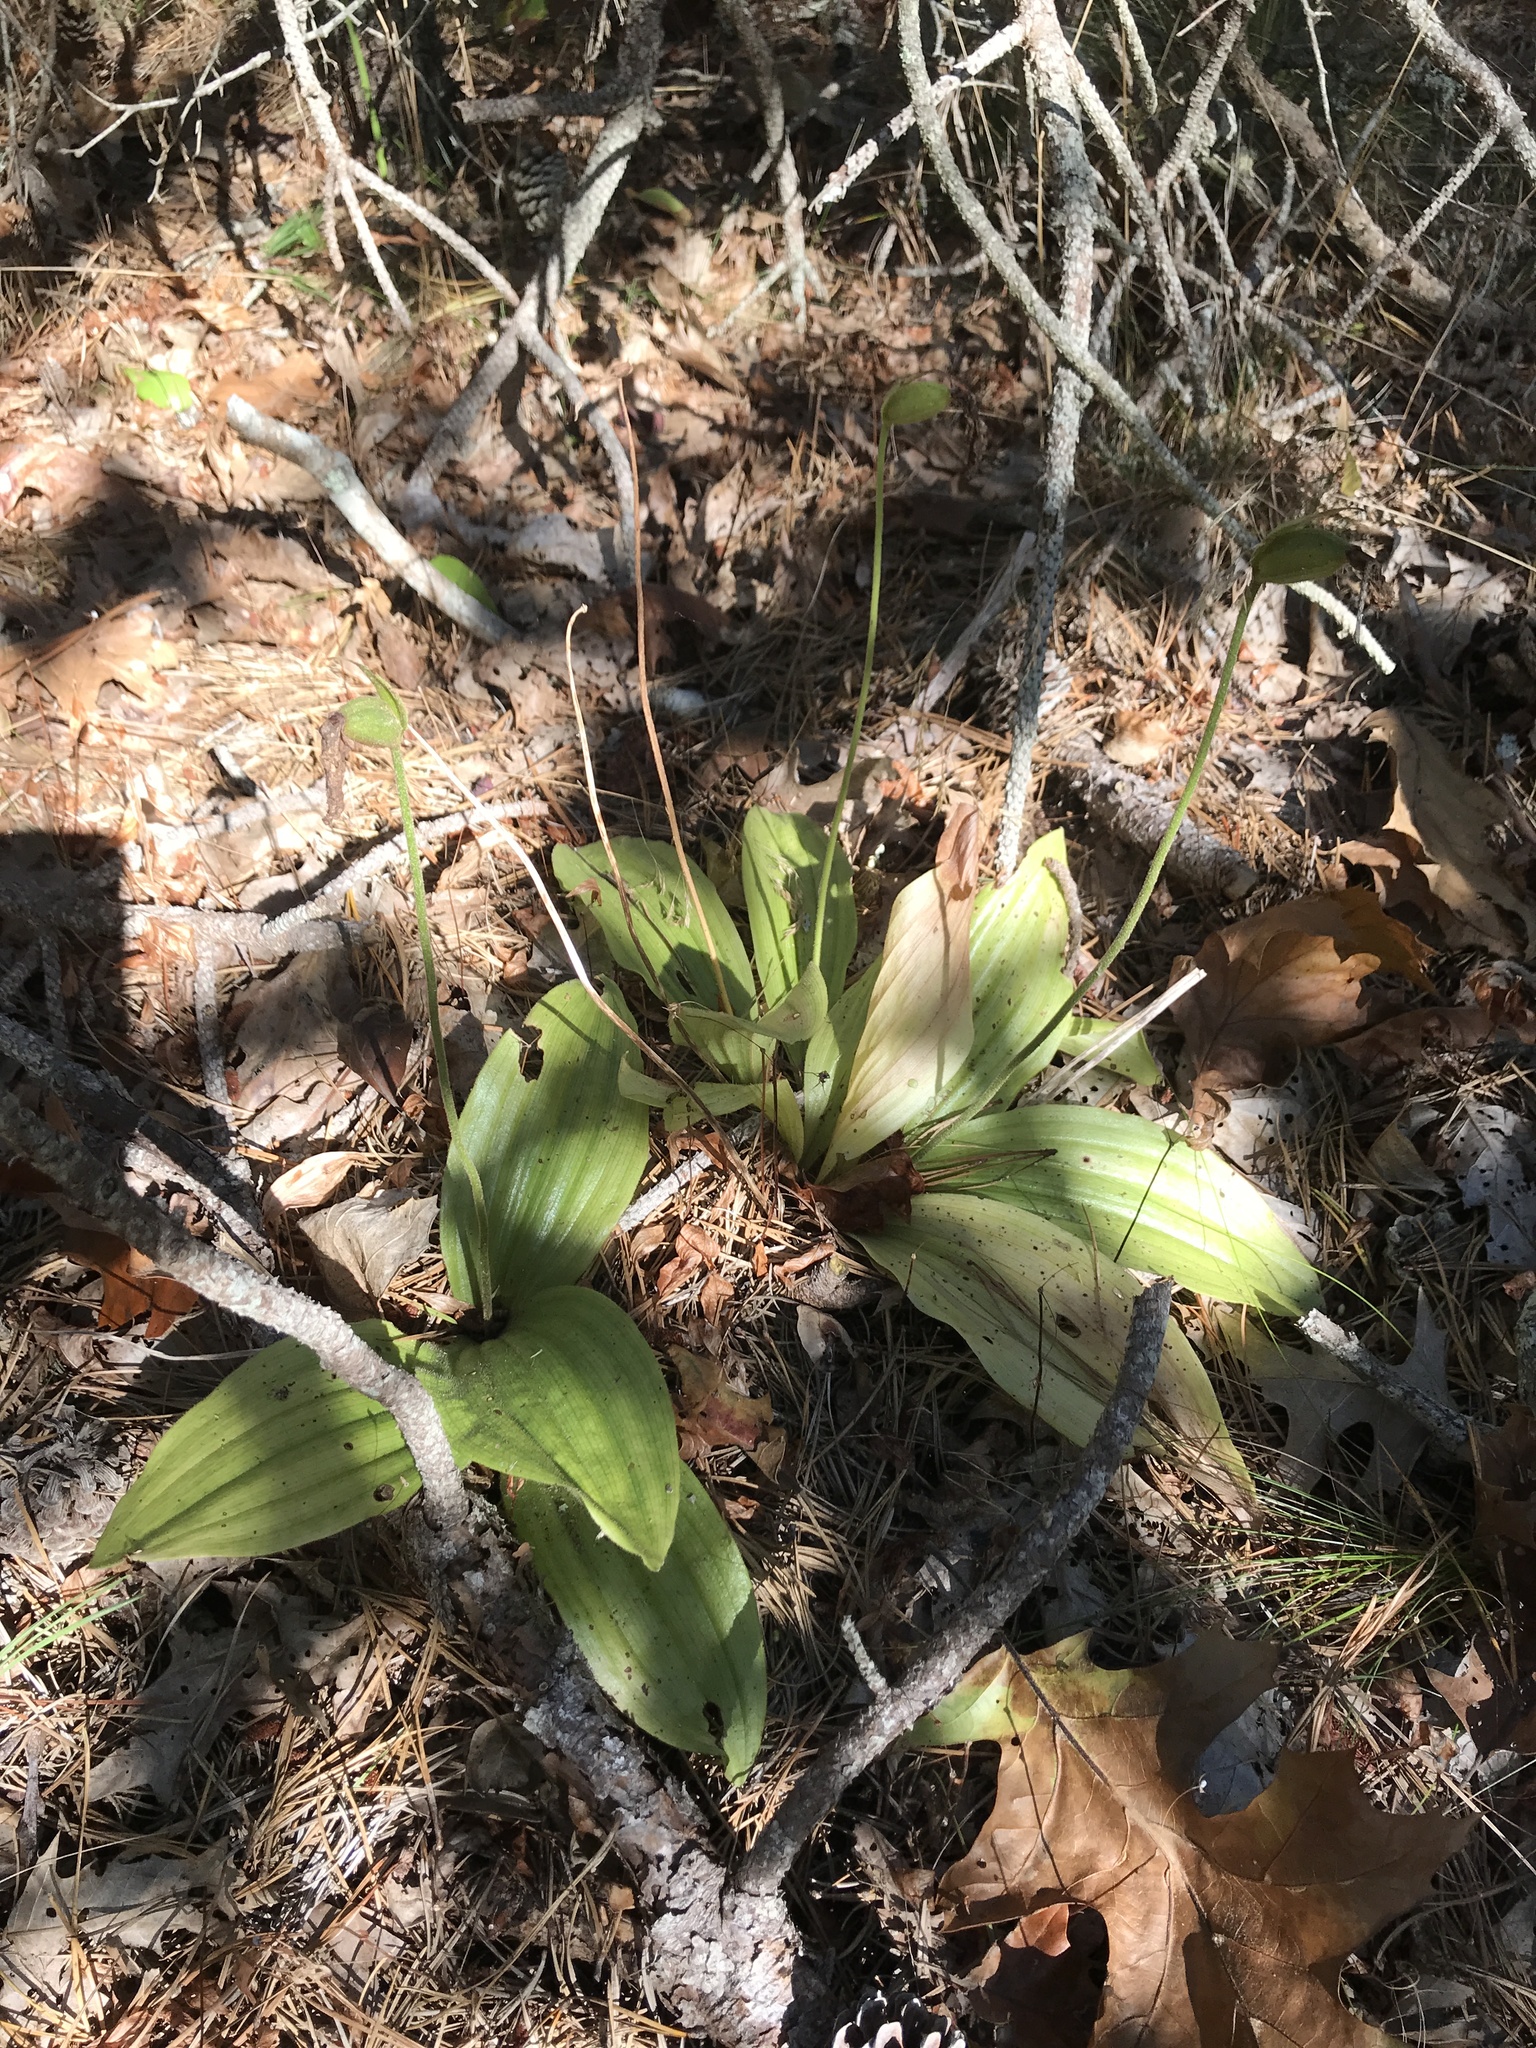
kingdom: Plantae
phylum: Tracheophyta
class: Liliopsida
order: Asparagales
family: Orchidaceae
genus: Cypripedium
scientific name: Cypripedium acaule
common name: Pink lady's-slipper
